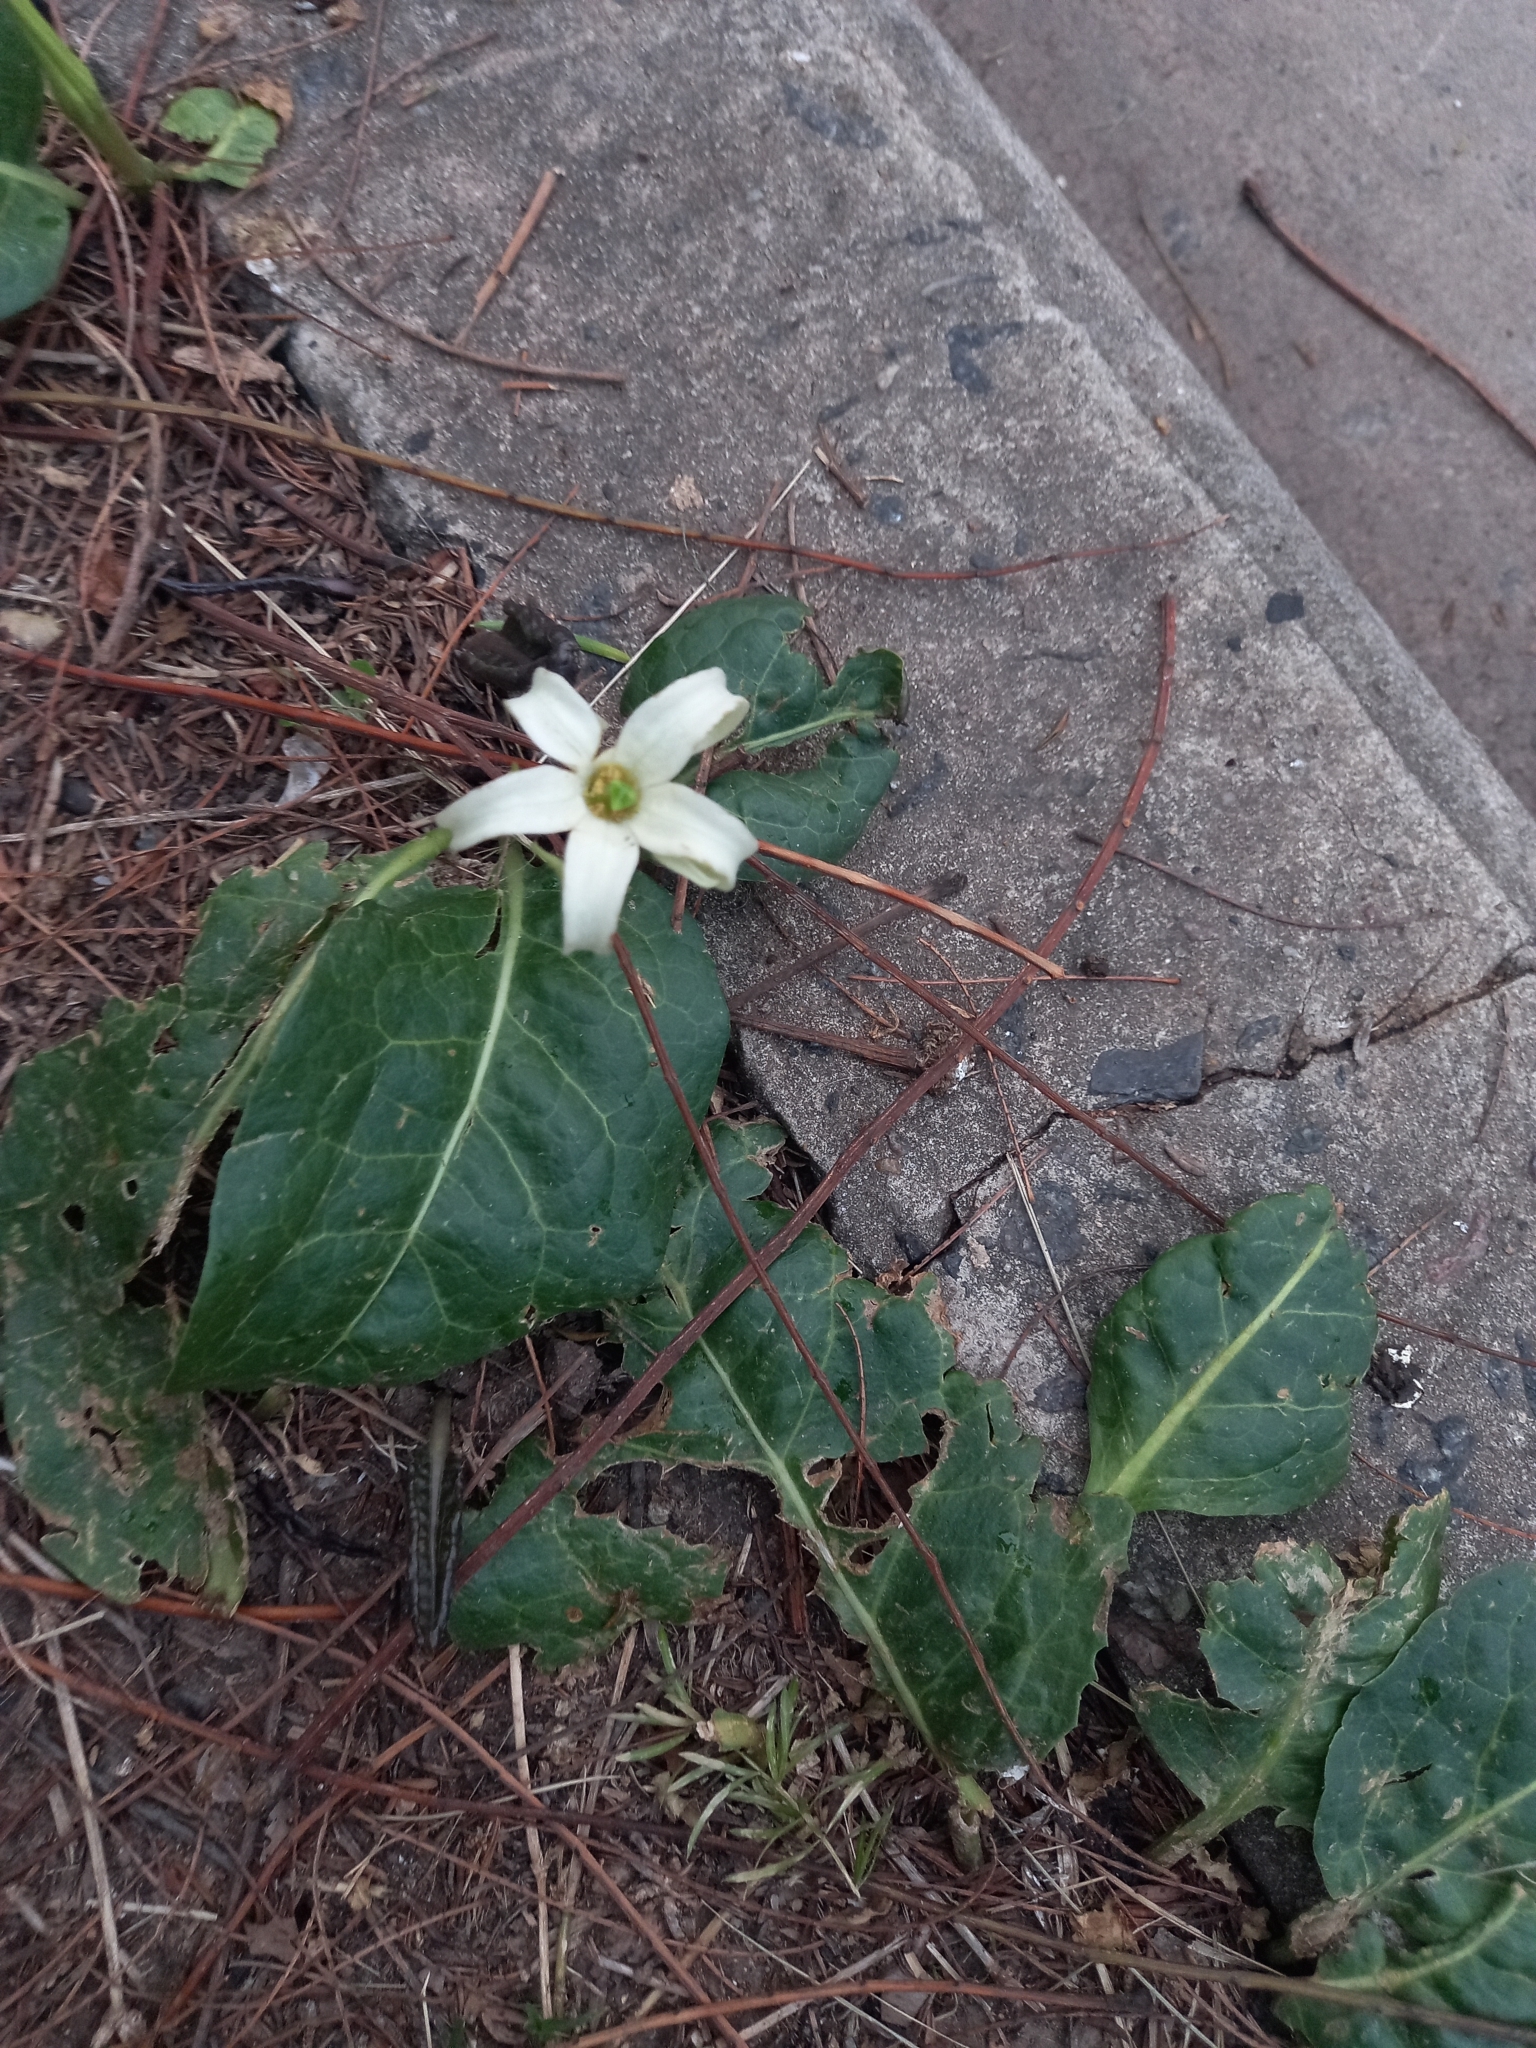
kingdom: Plantae
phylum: Tracheophyta
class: Magnoliopsida
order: Solanales
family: Solanaceae
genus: Jaborosa
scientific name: Jaborosa integrifolia
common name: Springblossom
